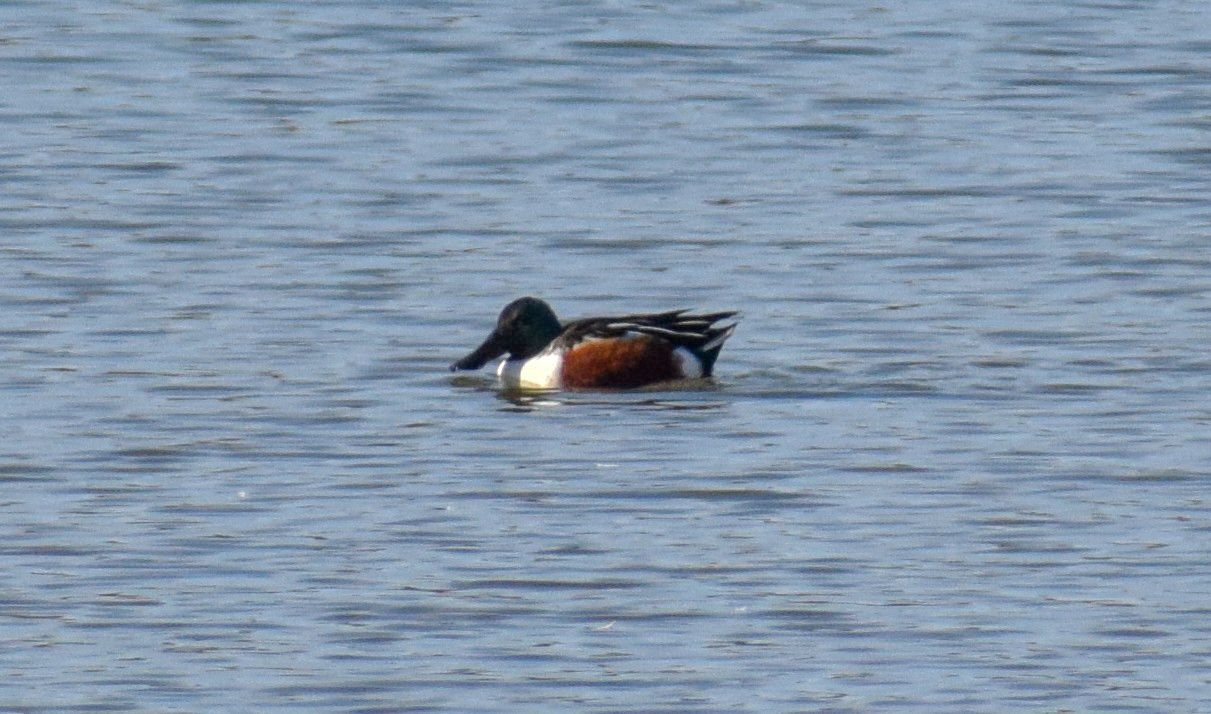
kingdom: Animalia
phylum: Chordata
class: Aves
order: Anseriformes
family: Anatidae
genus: Spatula
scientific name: Spatula clypeata
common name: Northern shoveler
